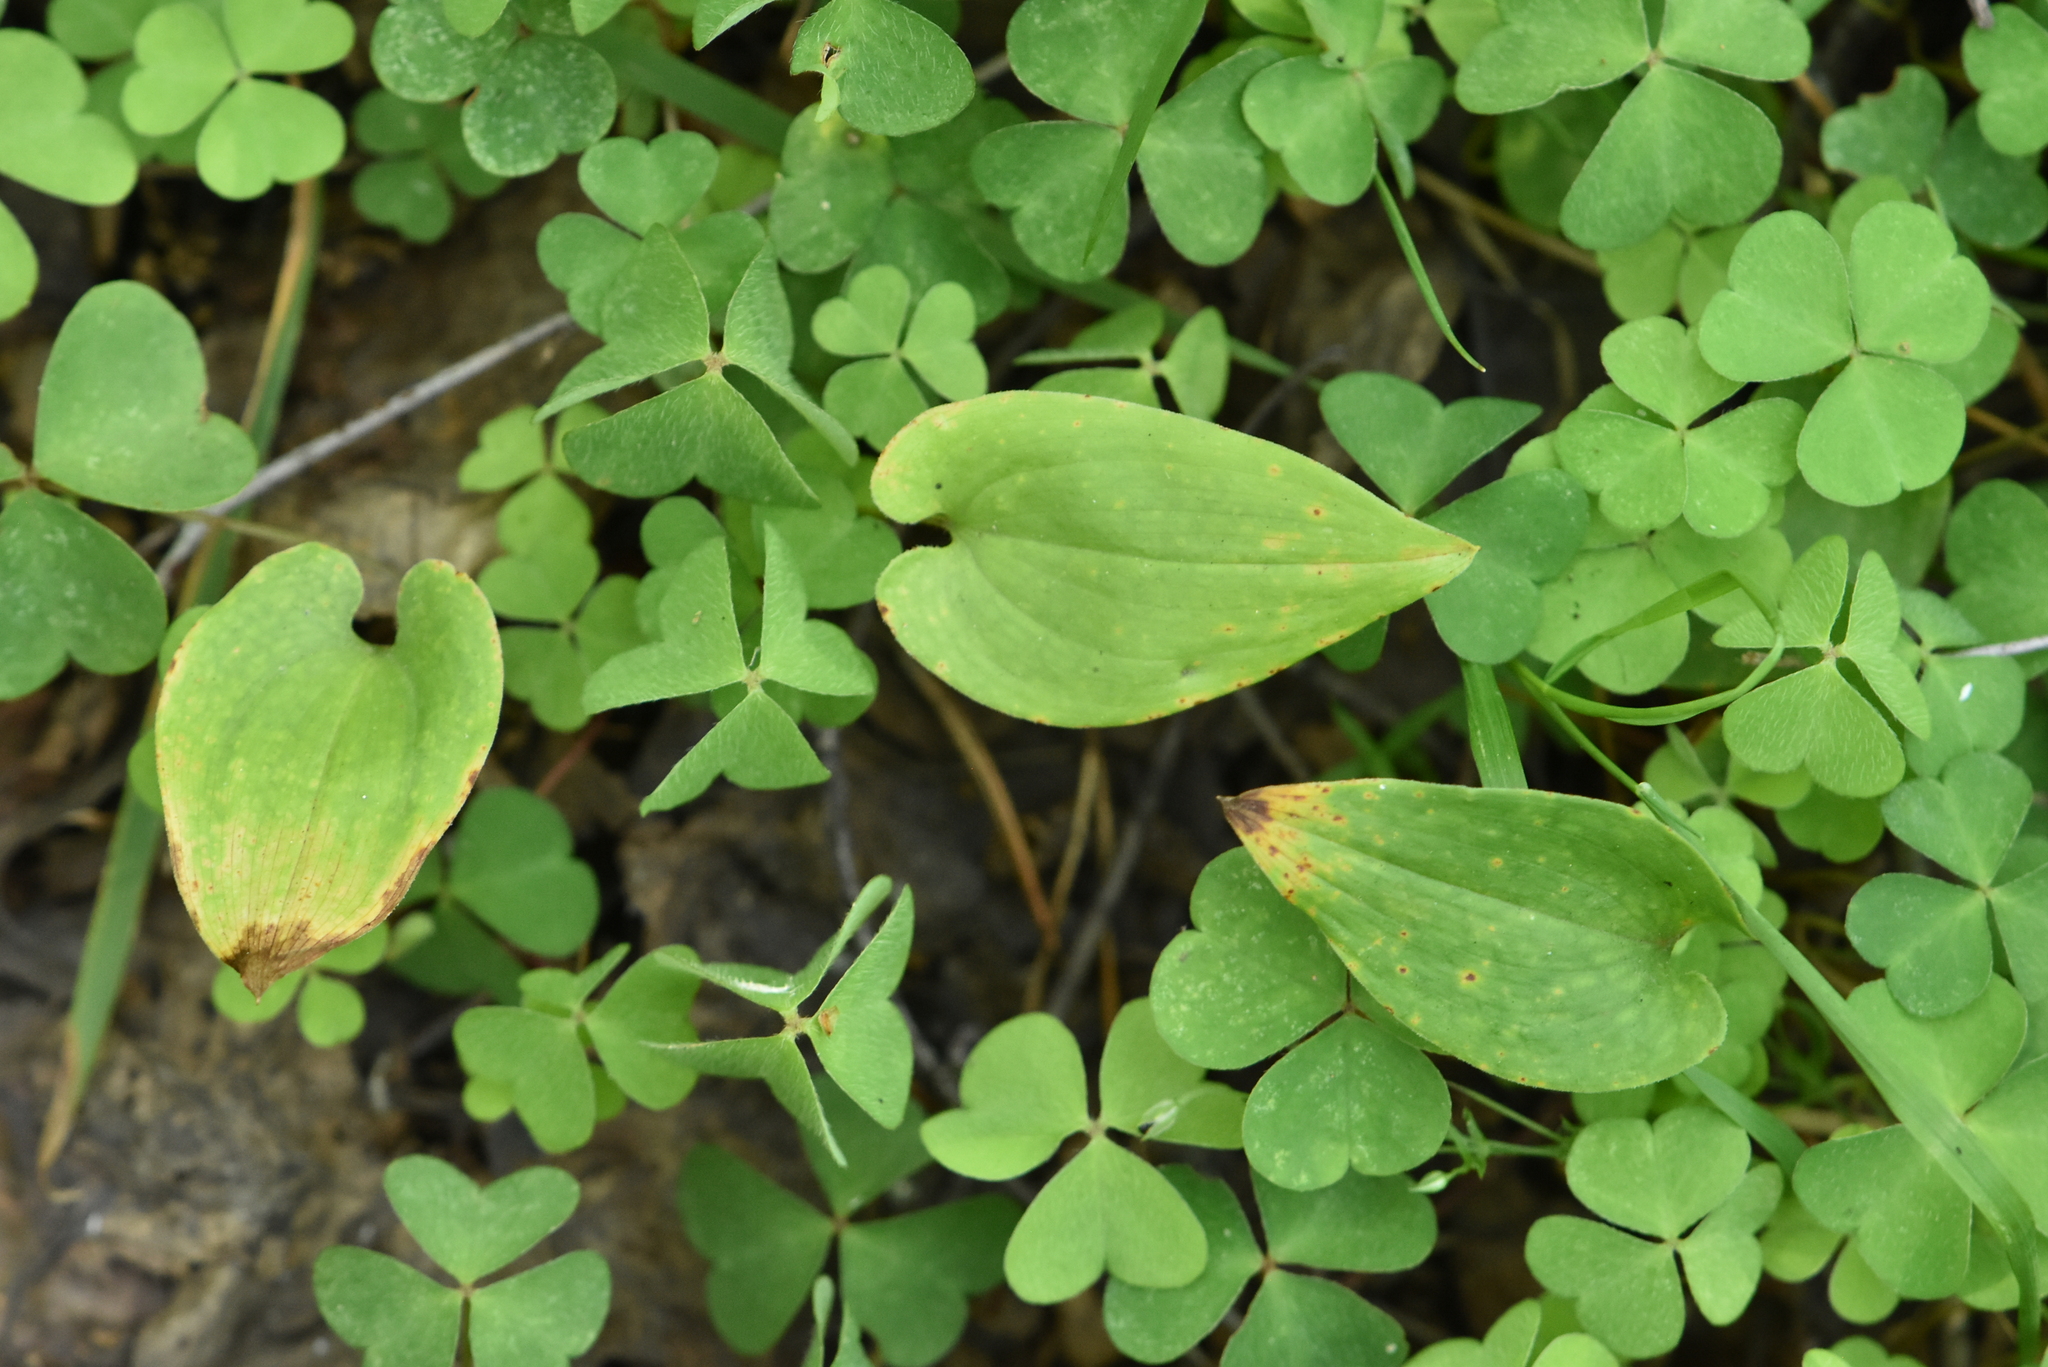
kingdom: Plantae
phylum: Tracheophyta
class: Liliopsida
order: Asparagales
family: Asparagaceae
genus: Maianthemum
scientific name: Maianthemum bifolium
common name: May lily
